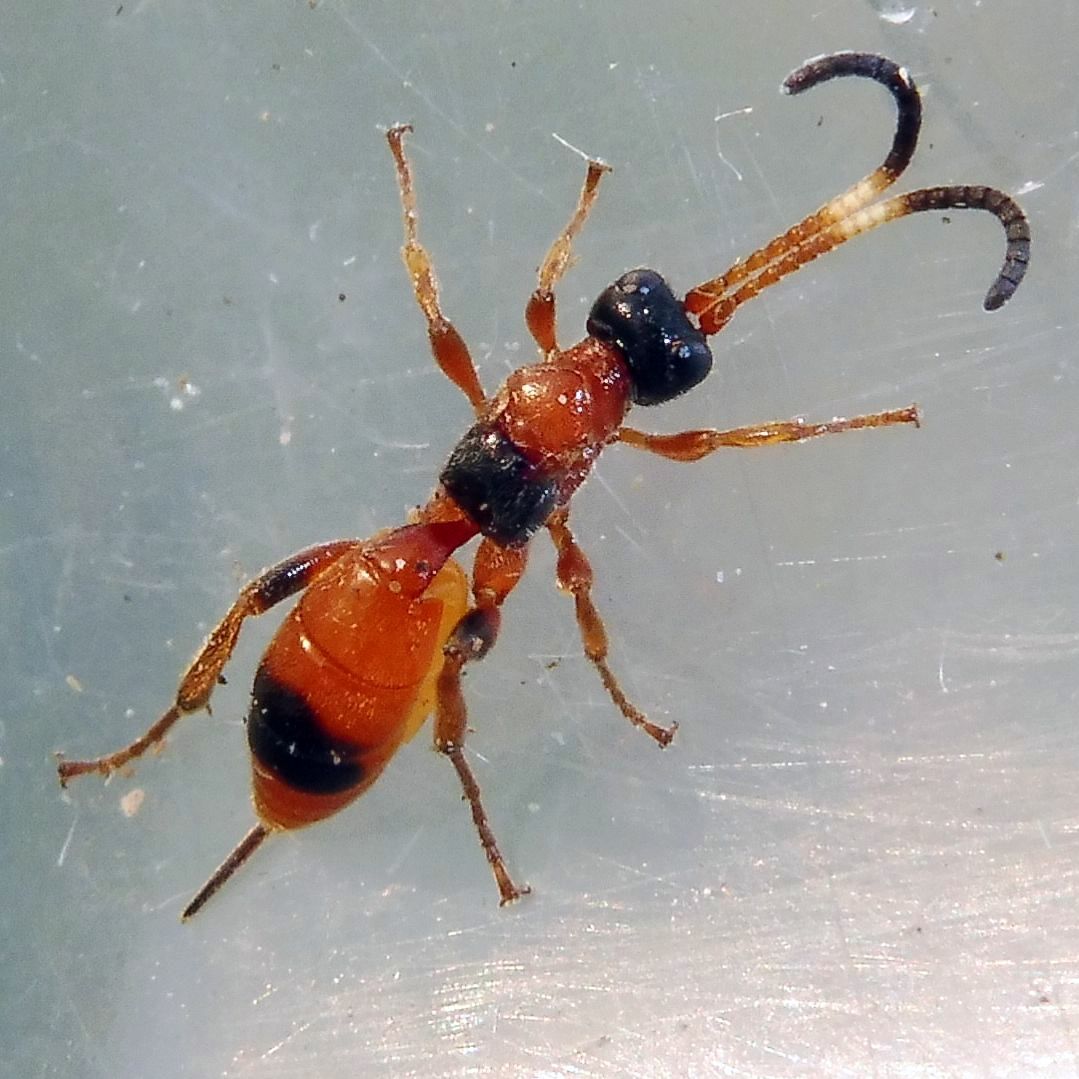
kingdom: Animalia
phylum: Arthropoda
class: Insecta
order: Hymenoptera
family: Ichneumonidae
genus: Aptesis
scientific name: Aptesis nigrocincta
